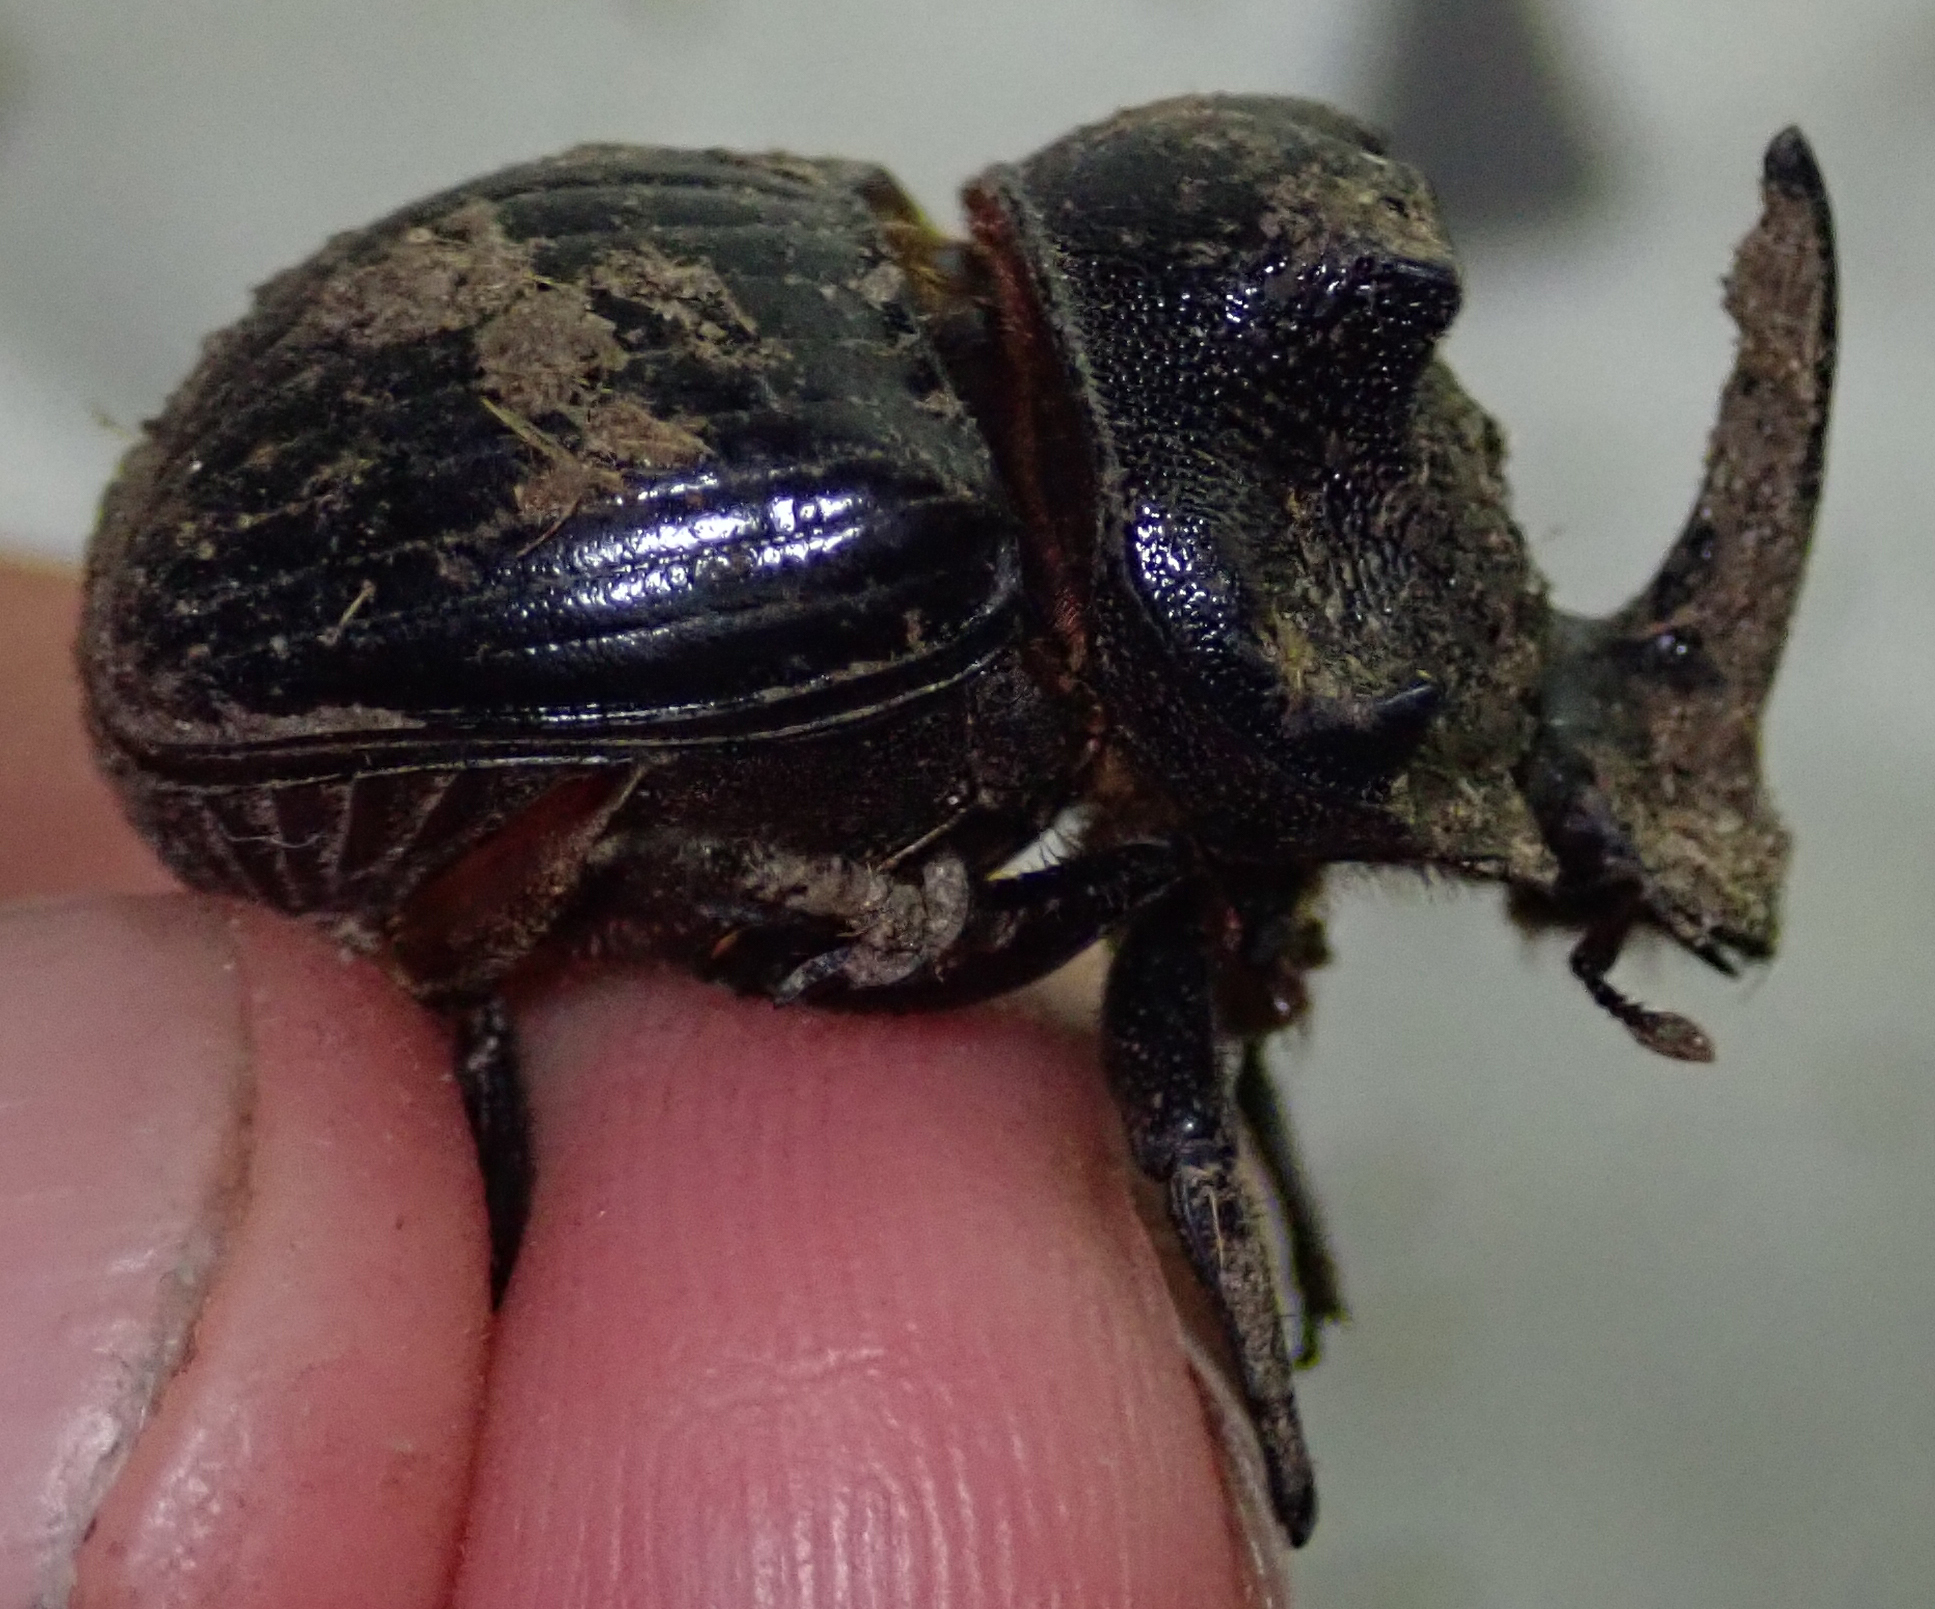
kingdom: Animalia
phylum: Arthropoda
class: Insecta
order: Coleoptera
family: Scarabaeidae
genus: Copris
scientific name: Copris elphenor
